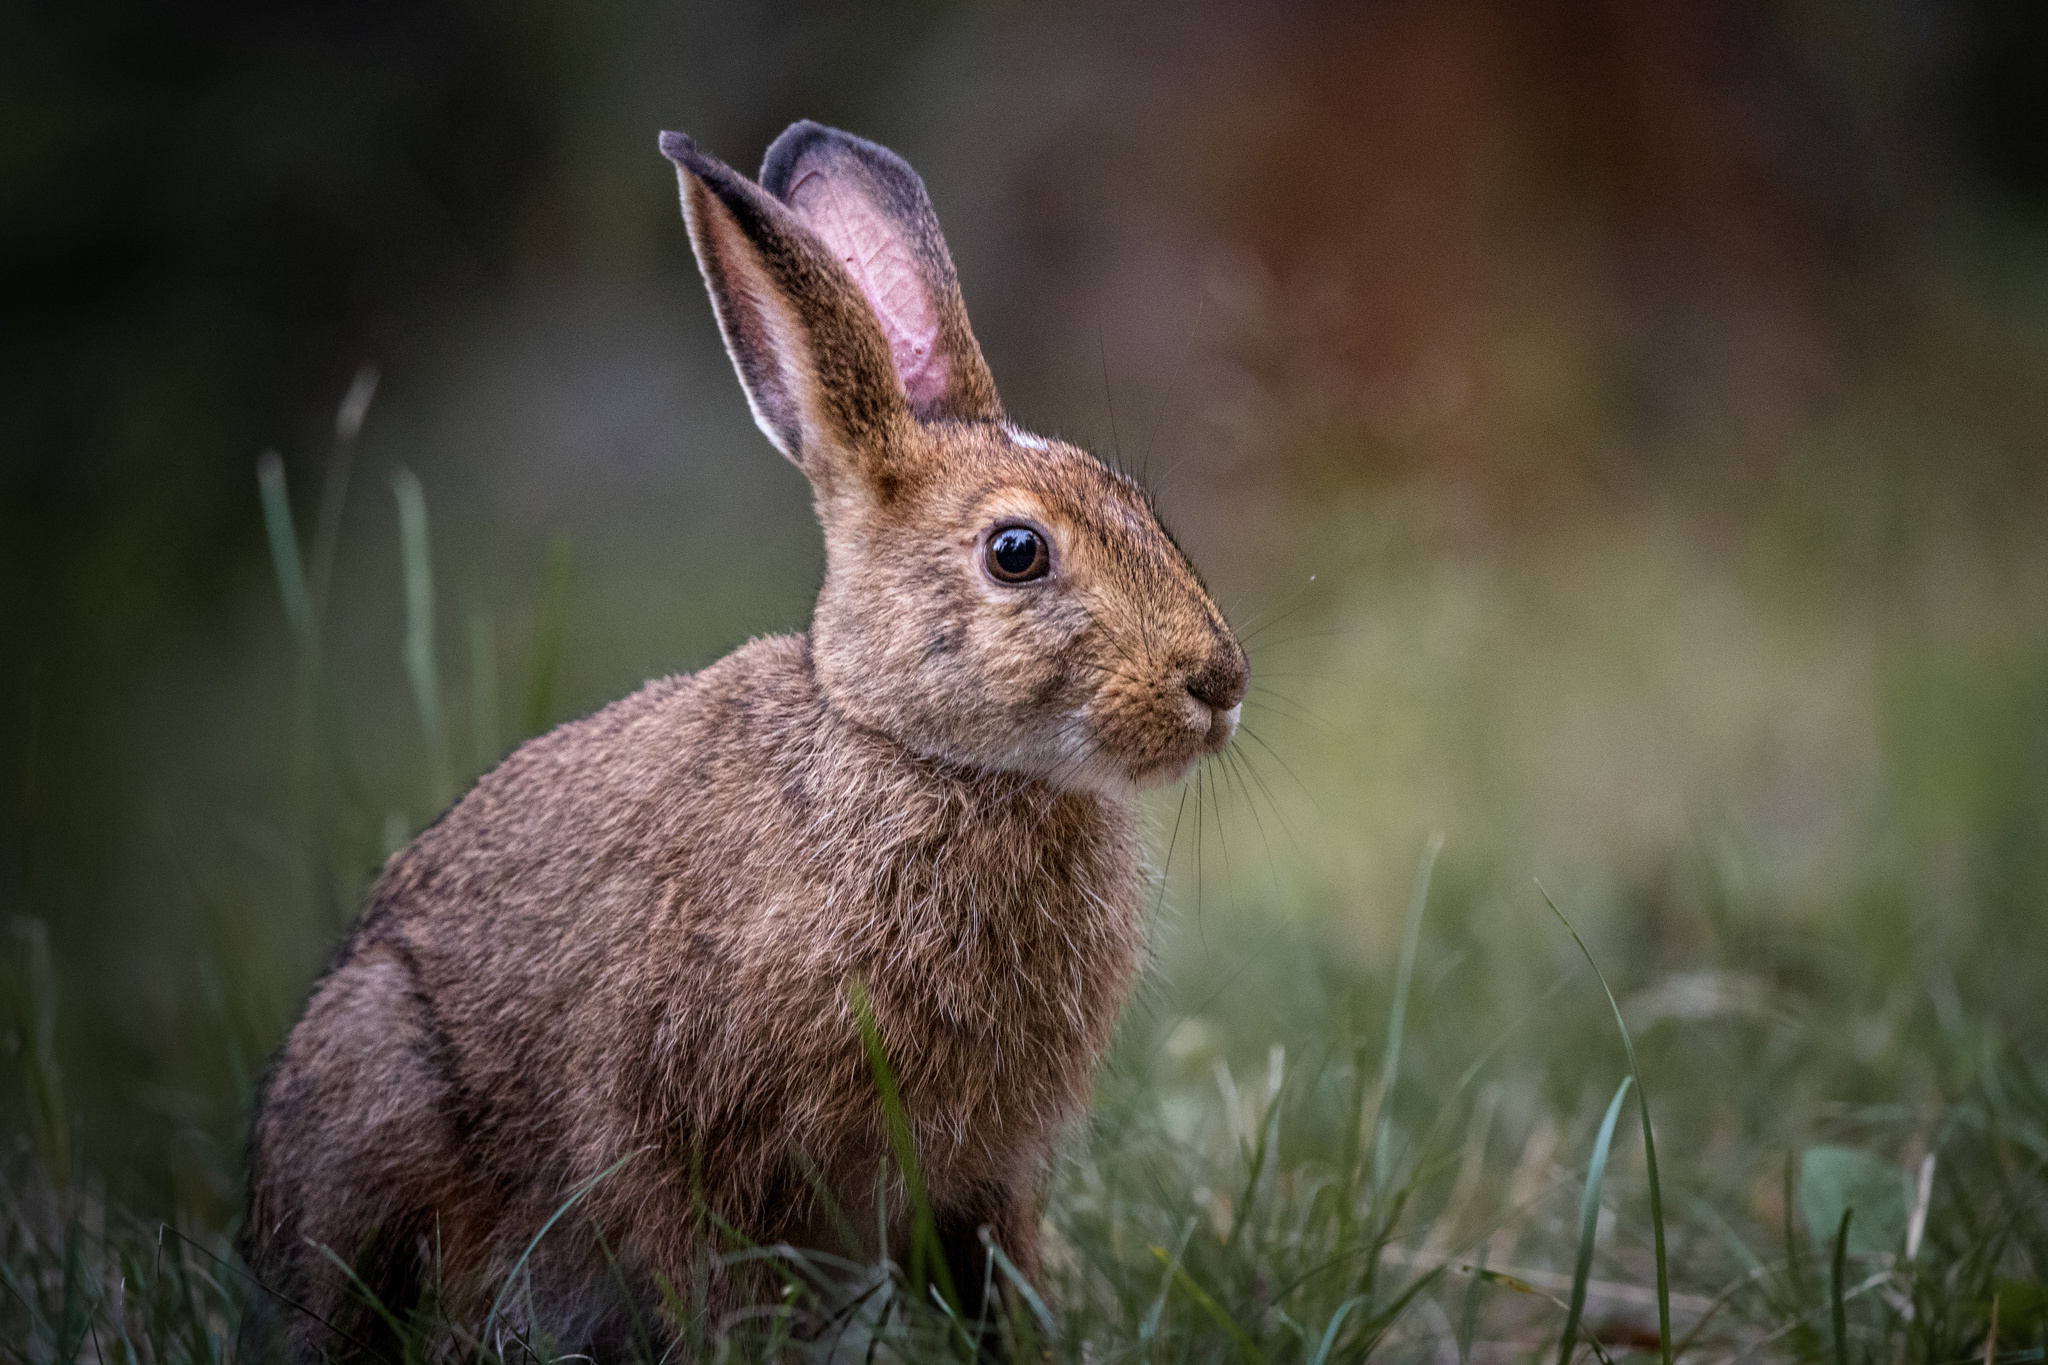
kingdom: Animalia
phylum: Chordata
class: Mammalia
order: Lagomorpha
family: Leporidae
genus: Lepus
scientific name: Lepus americanus
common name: Snowshoe hare
